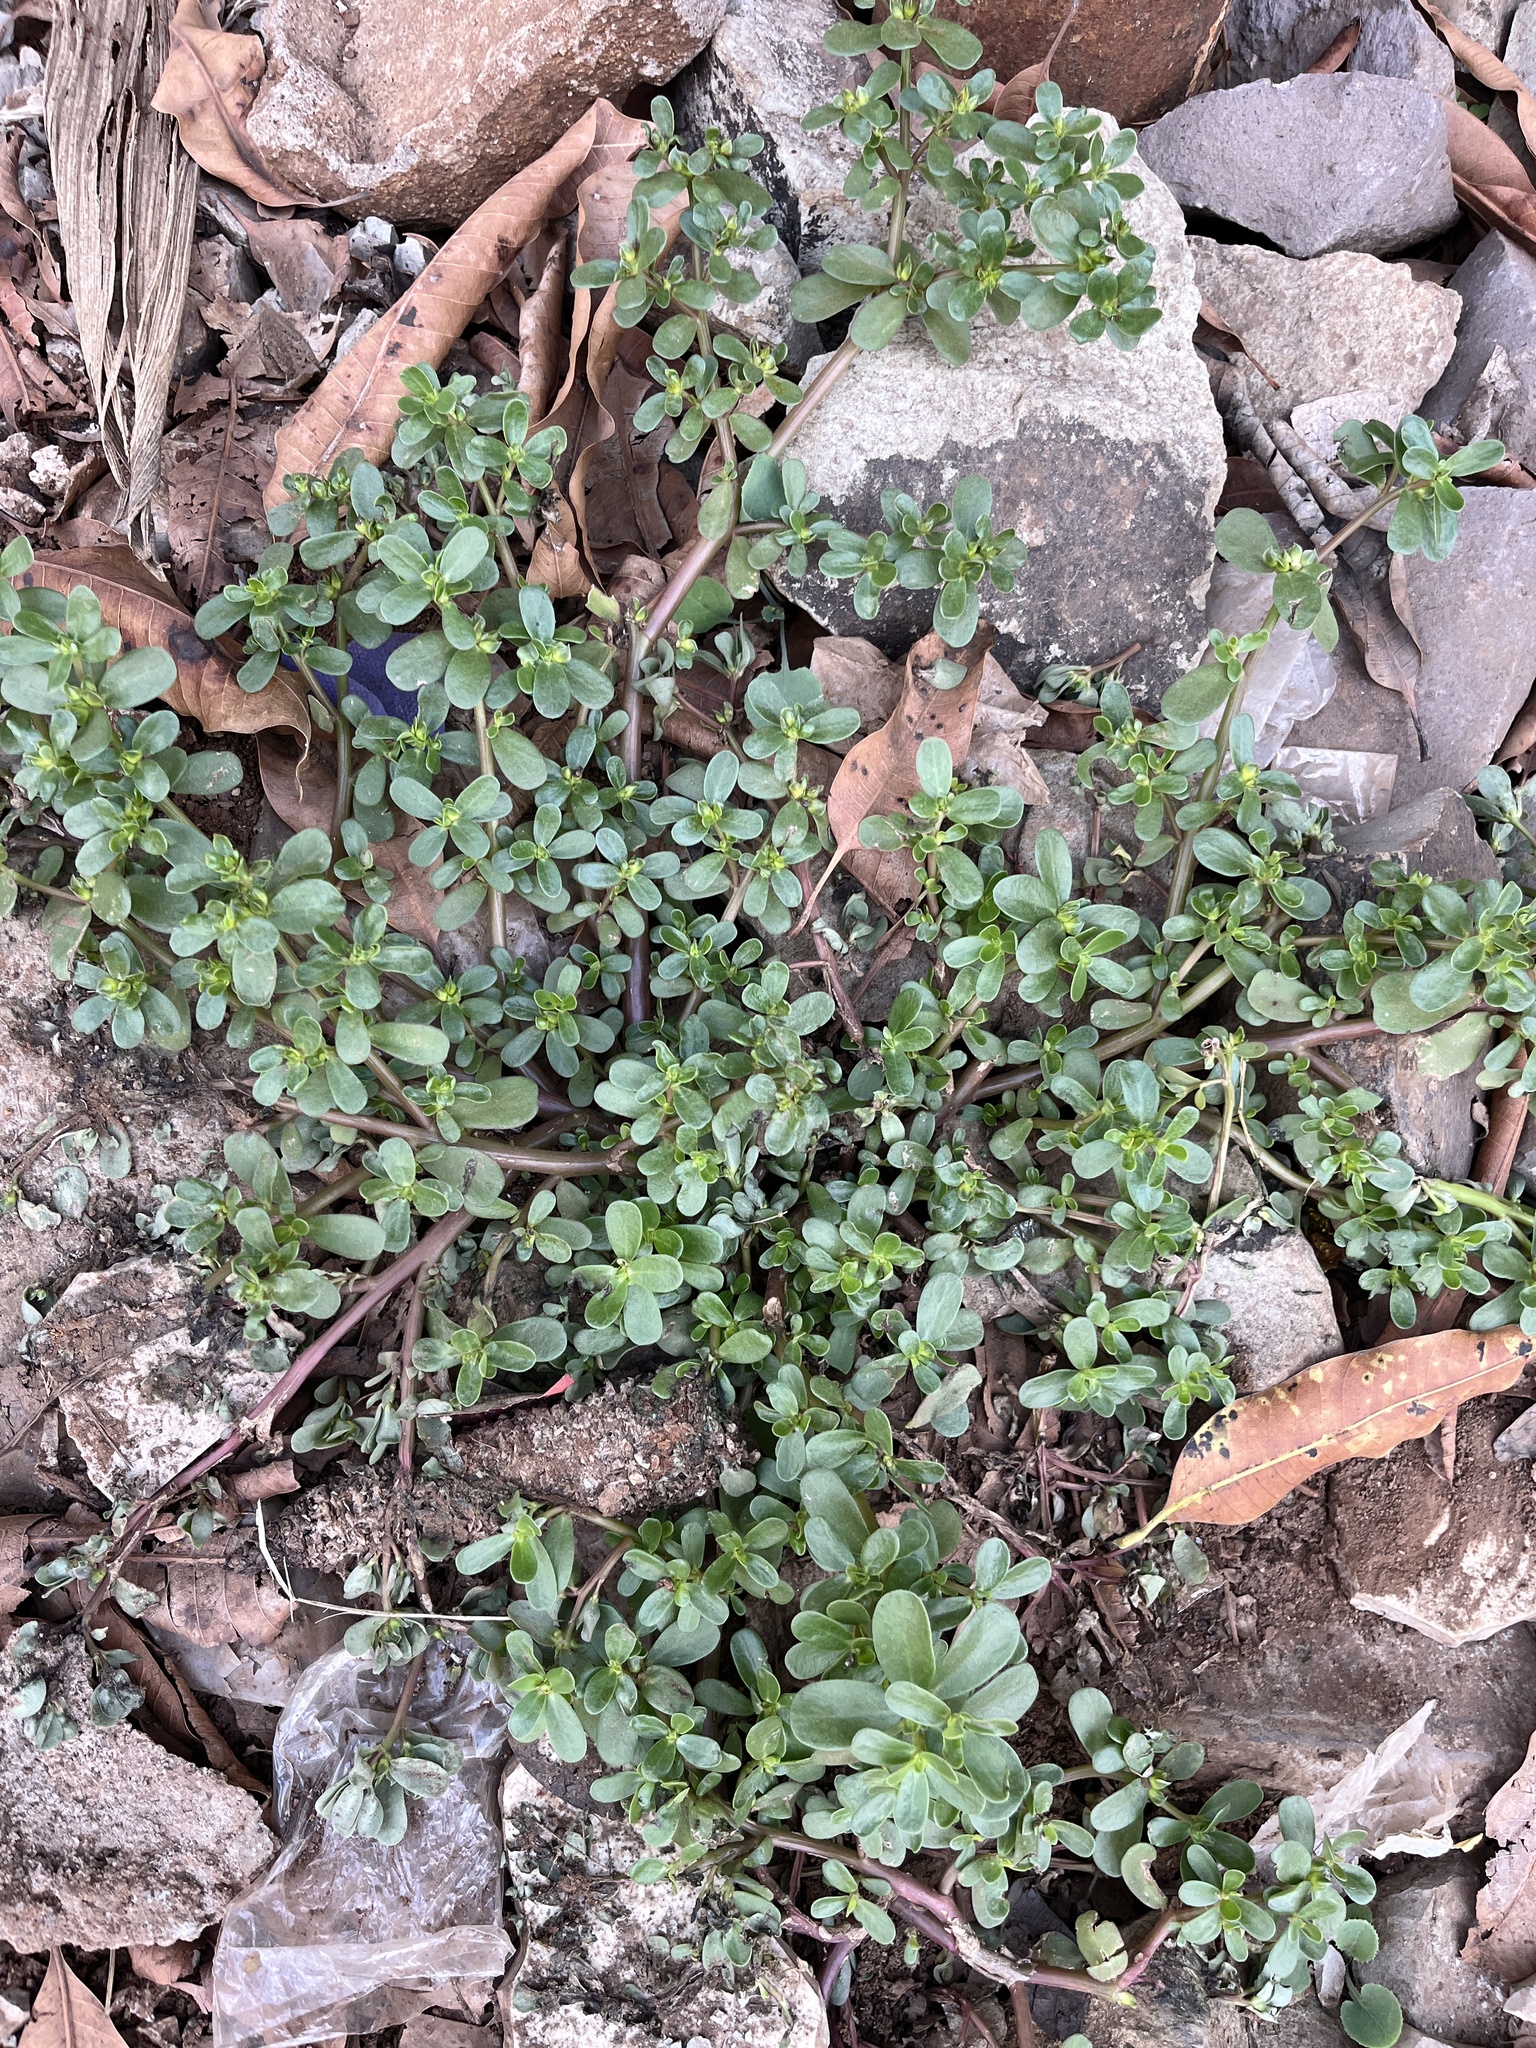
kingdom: Plantae
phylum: Tracheophyta
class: Magnoliopsida
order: Caryophyllales
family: Portulacaceae
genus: Portulaca
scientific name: Portulaca oleracea
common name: Common purslane
